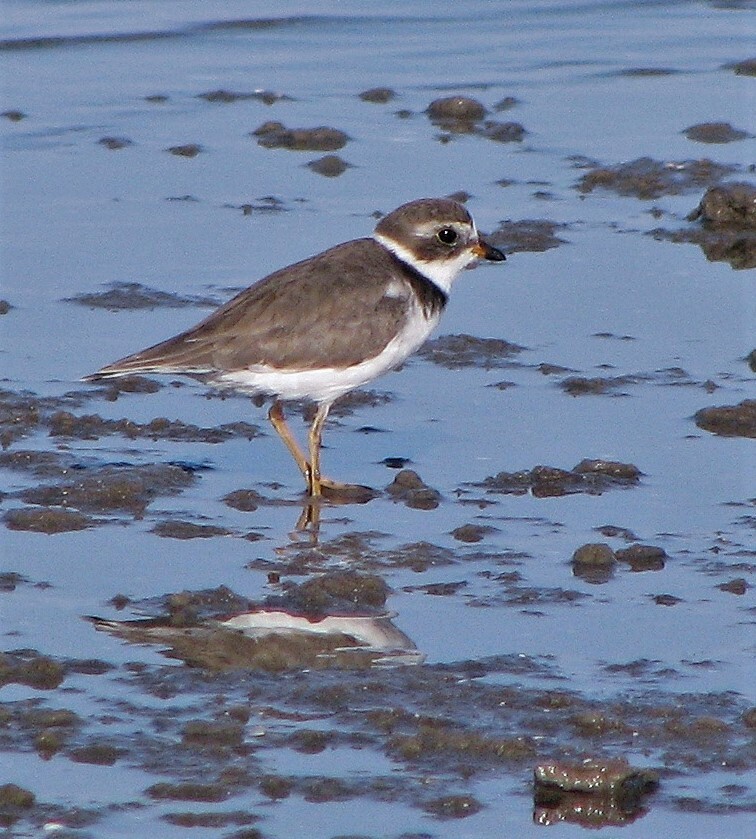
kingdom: Animalia
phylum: Chordata
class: Aves
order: Charadriiformes
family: Charadriidae
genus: Charadrius
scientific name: Charadrius semipalmatus
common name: Semipalmated plover
